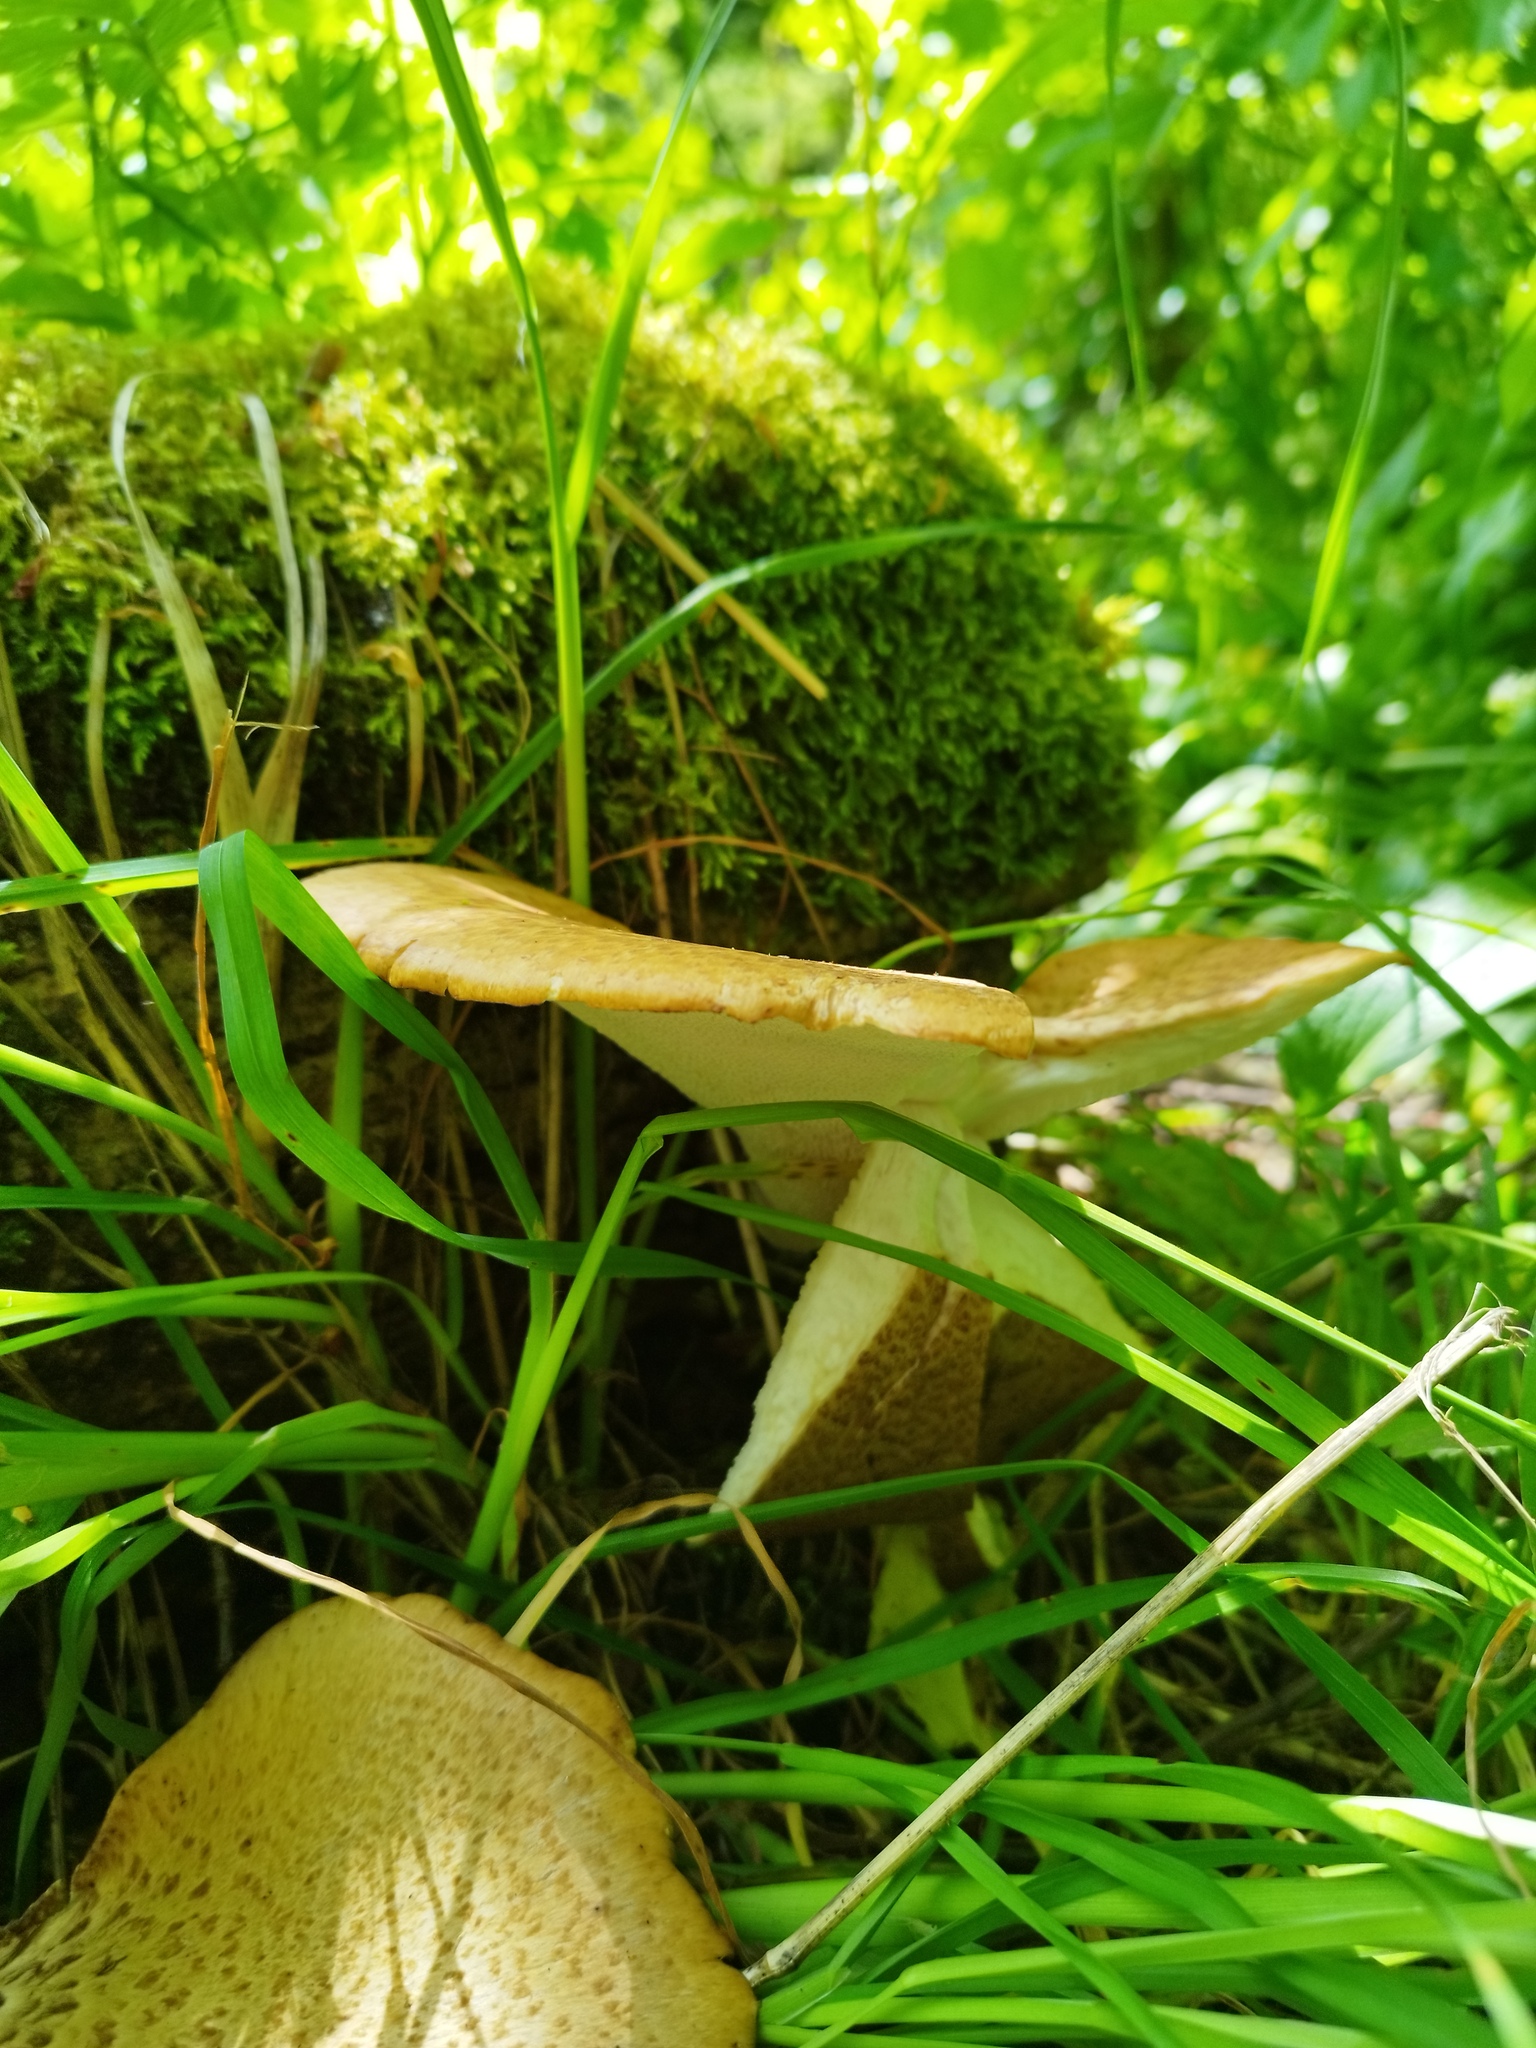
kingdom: Fungi
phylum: Basidiomycota
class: Agaricomycetes
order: Polyporales
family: Polyporaceae
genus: Cerioporus
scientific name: Cerioporus squamosus
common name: Dryad's saddle
